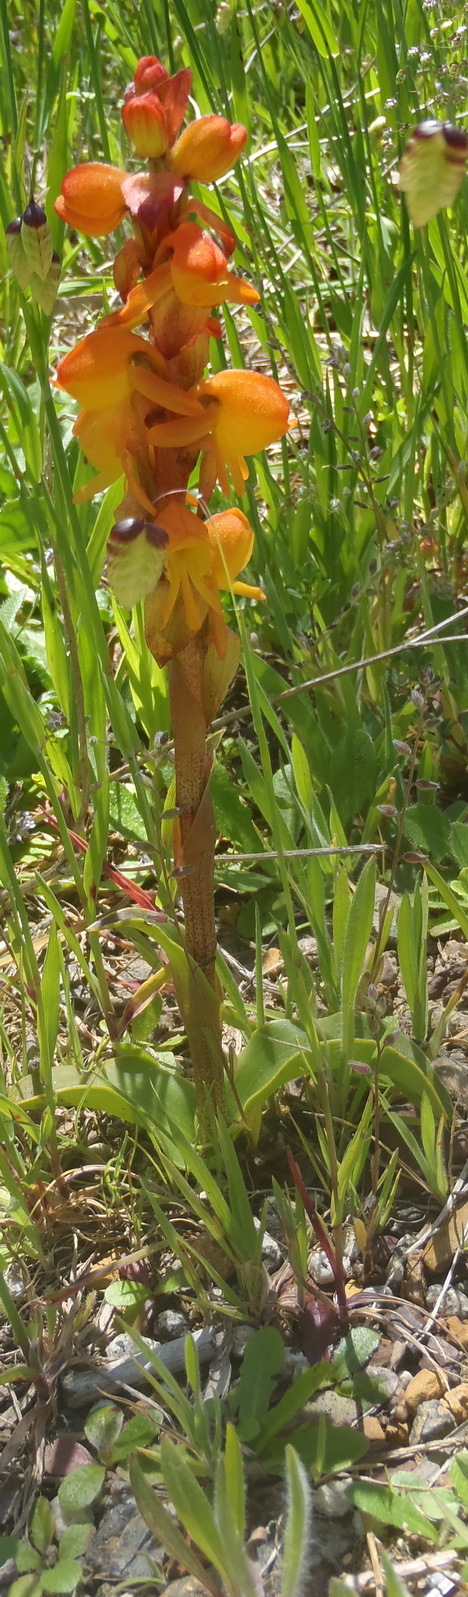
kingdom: Plantae
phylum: Tracheophyta
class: Liliopsida
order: Asparagales
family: Orchidaceae
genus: Satyrium
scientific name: Satyrium coriifolium
